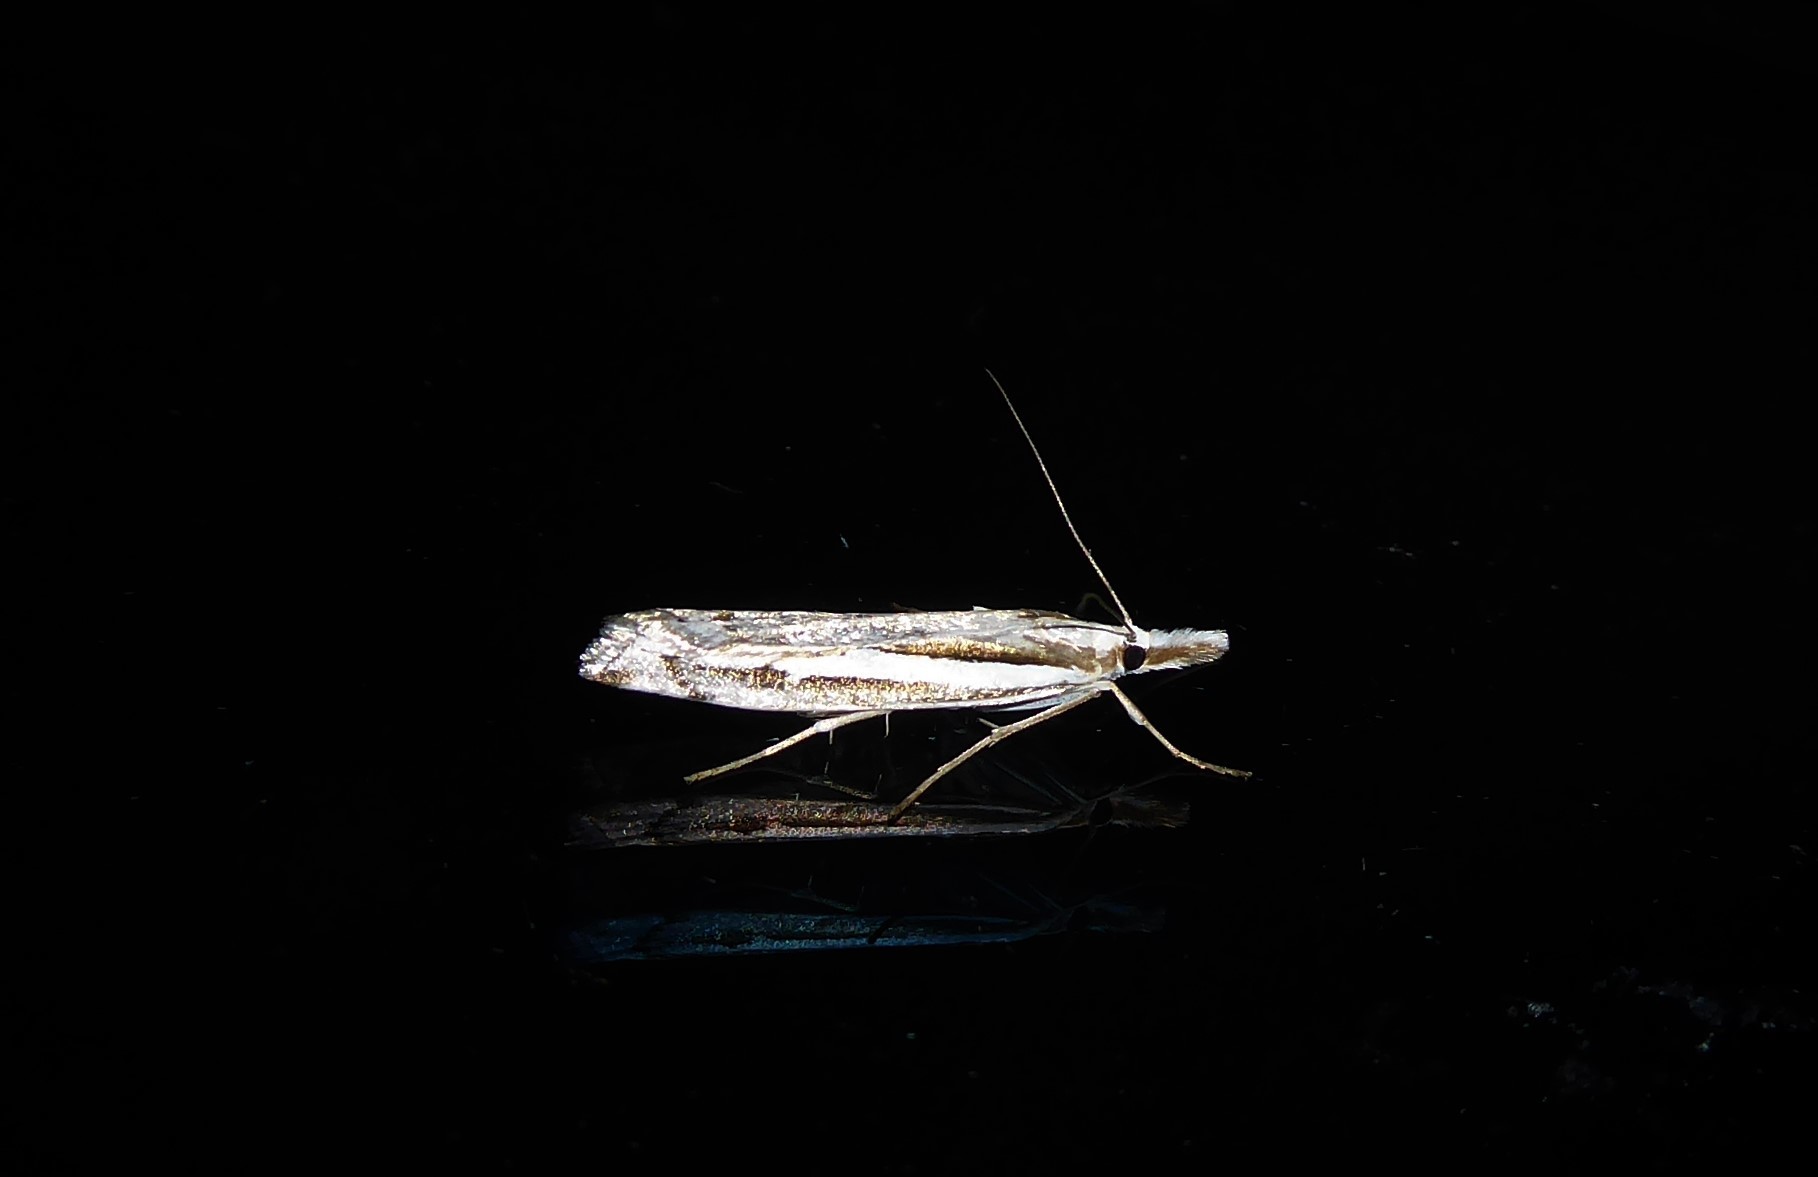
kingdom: Animalia
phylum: Arthropoda
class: Insecta
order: Lepidoptera
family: Crambidae
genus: Orocrambus
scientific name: Orocrambus vittellus
